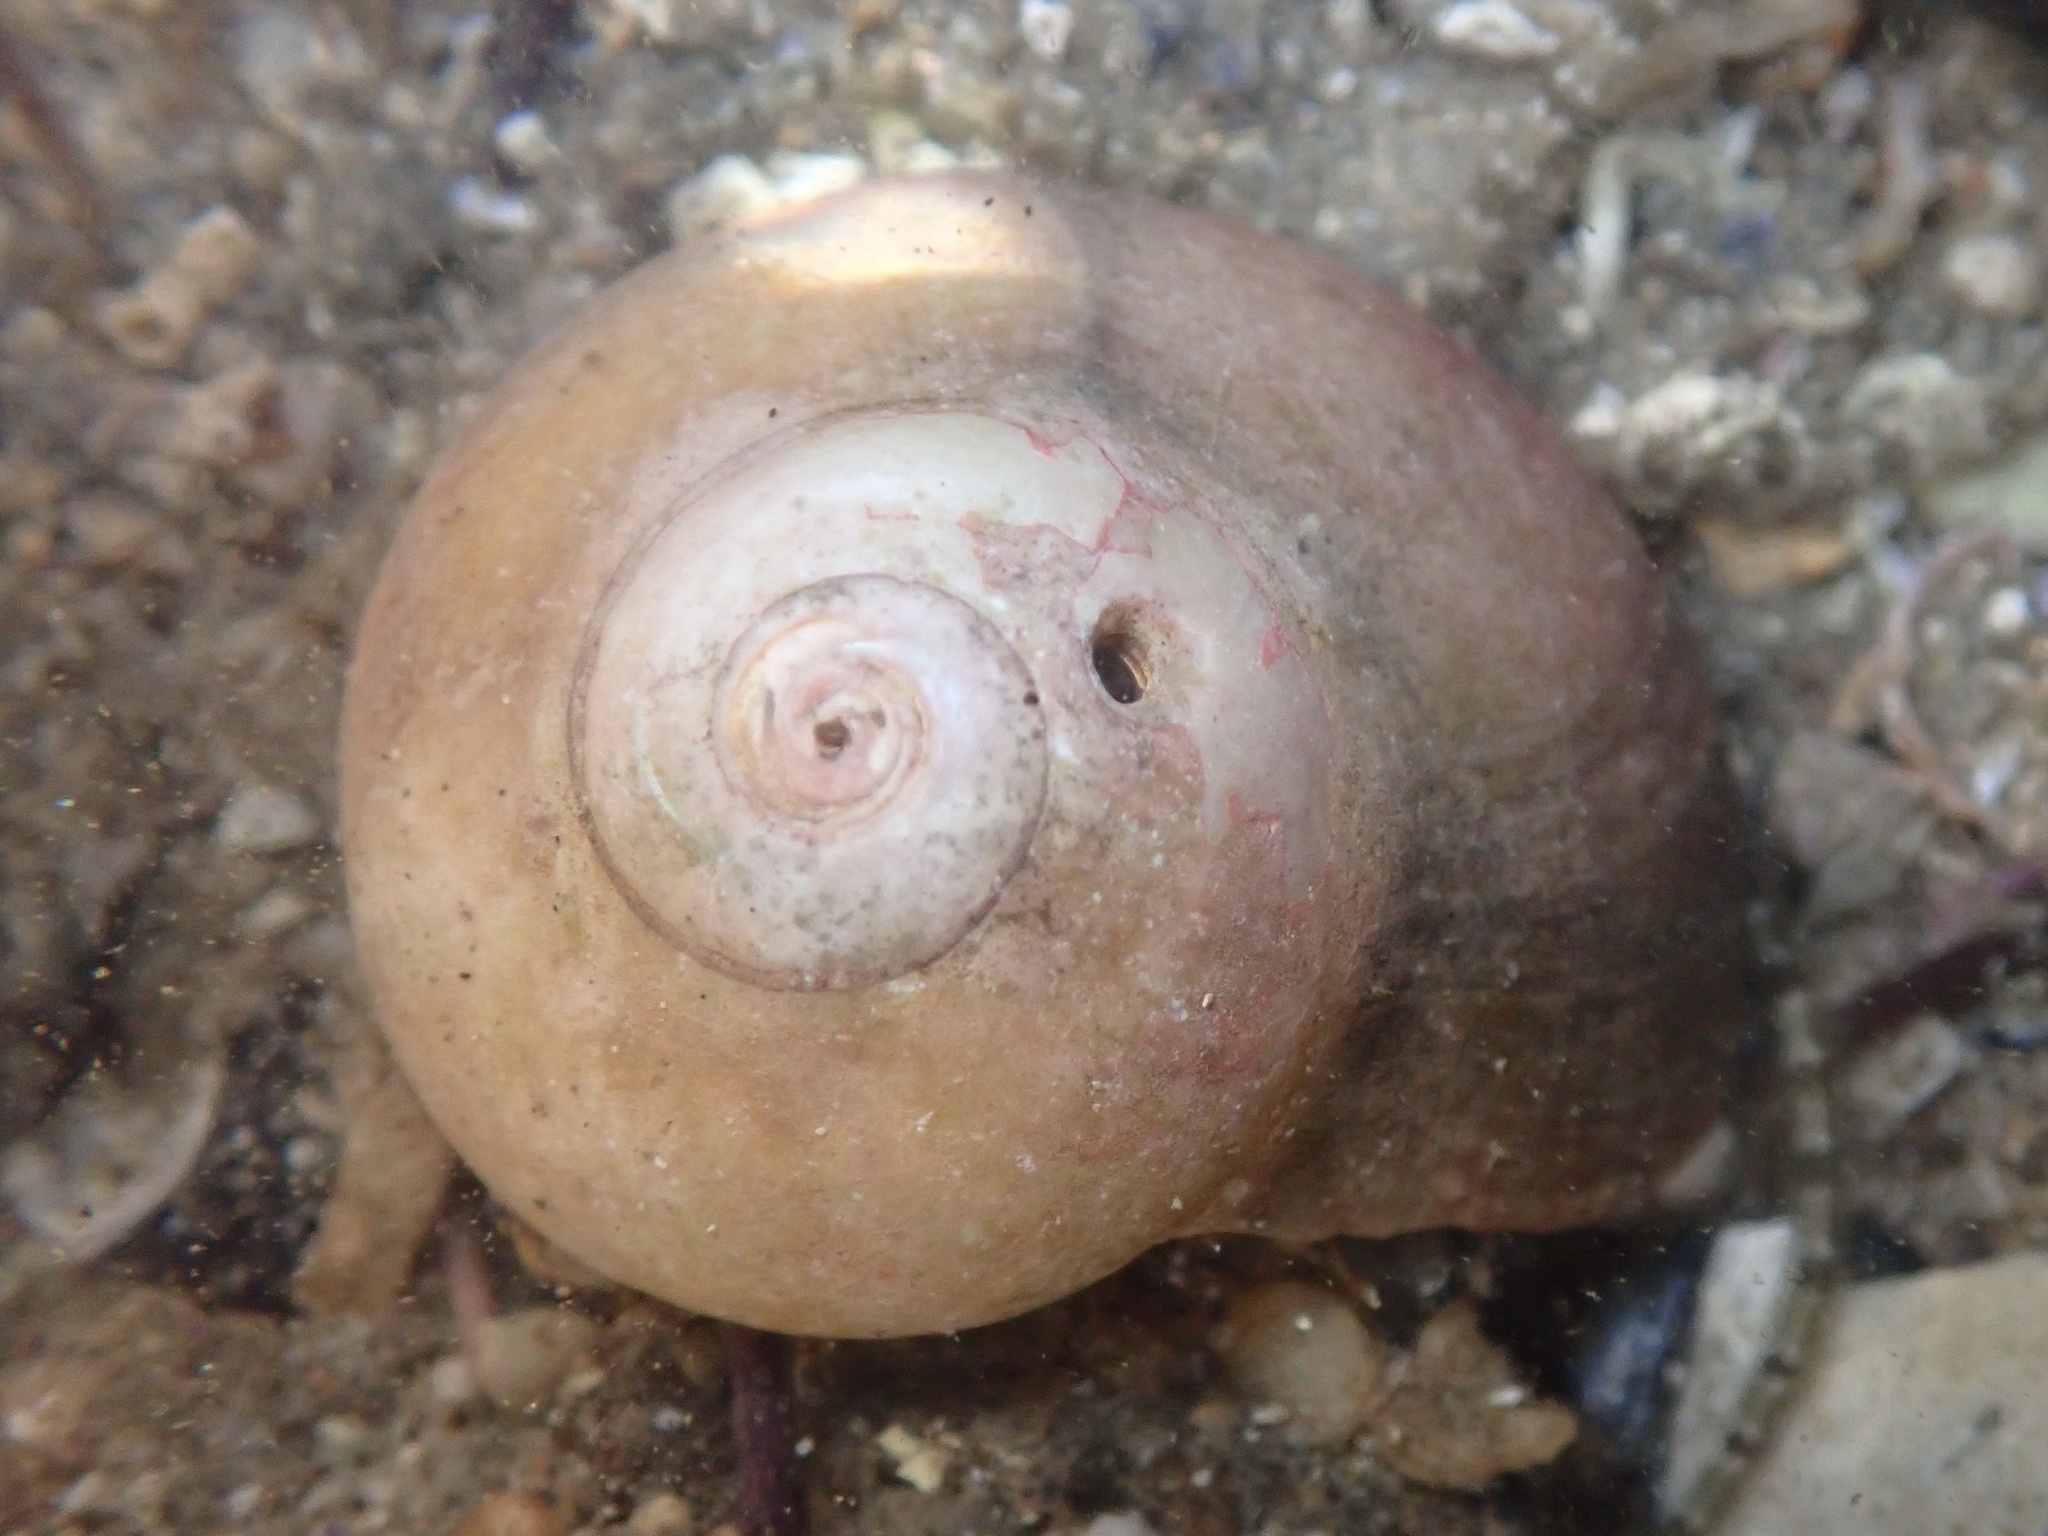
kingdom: Animalia
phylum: Mollusca
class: Gastropoda
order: Trochida
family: Tegulidae
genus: Norrisia
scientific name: Norrisia norrisii
